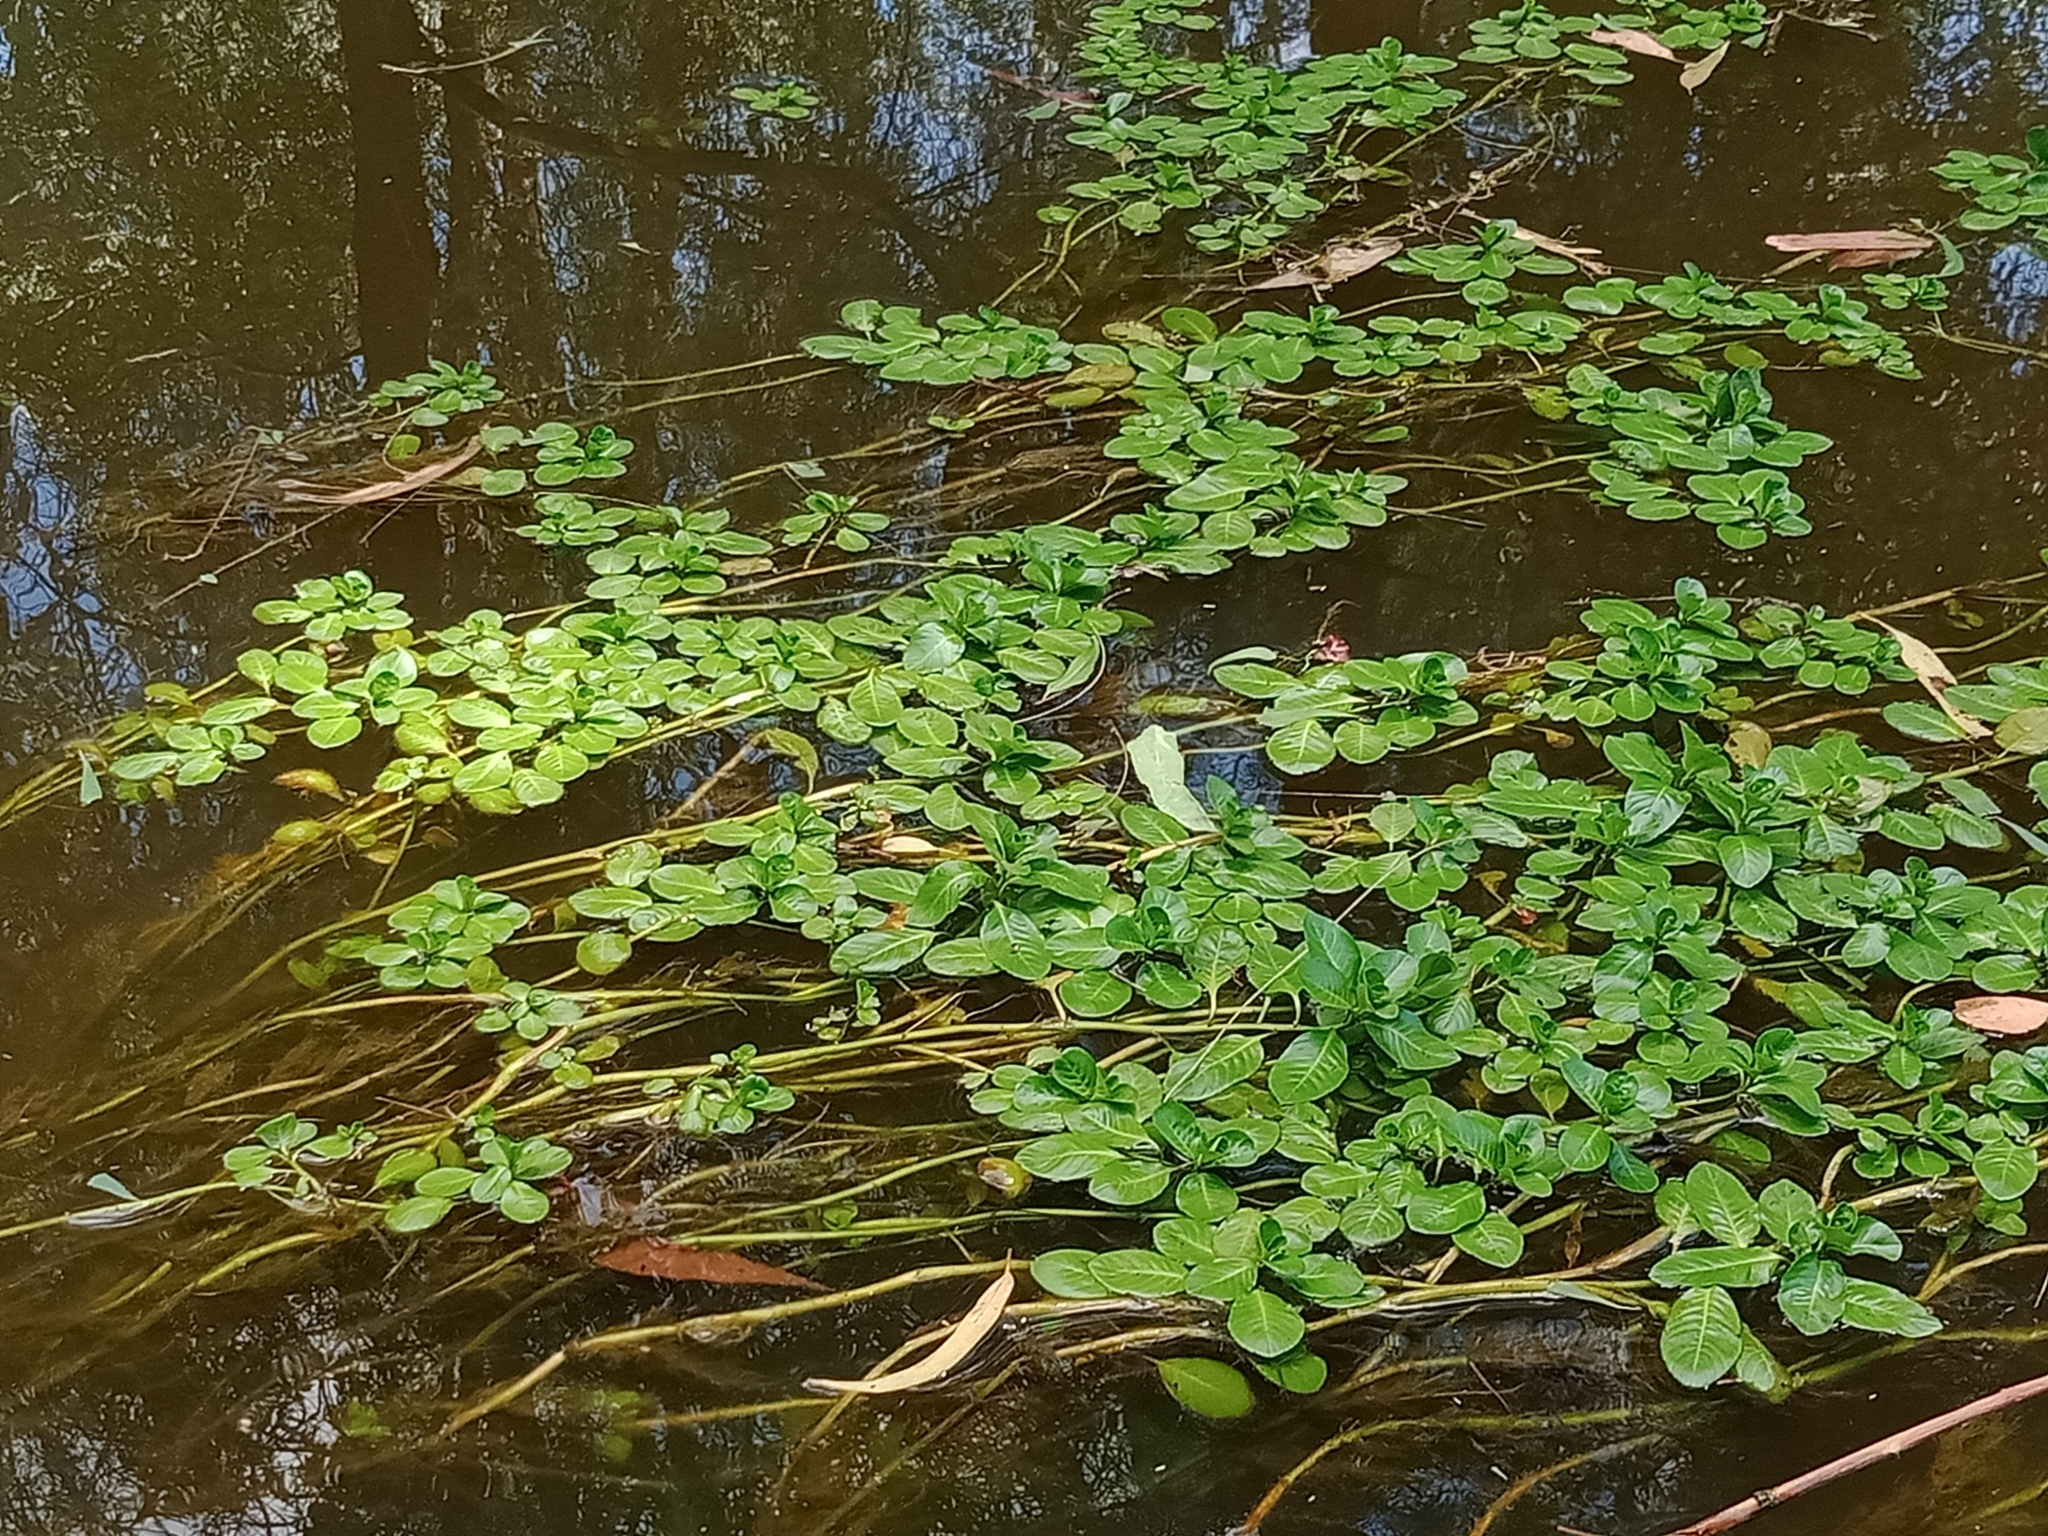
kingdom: Plantae
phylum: Tracheophyta
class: Magnoliopsida
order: Myrtales
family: Onagraceae
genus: Ludwigia
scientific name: Ludwigia peploides
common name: Floating primrose-willow
